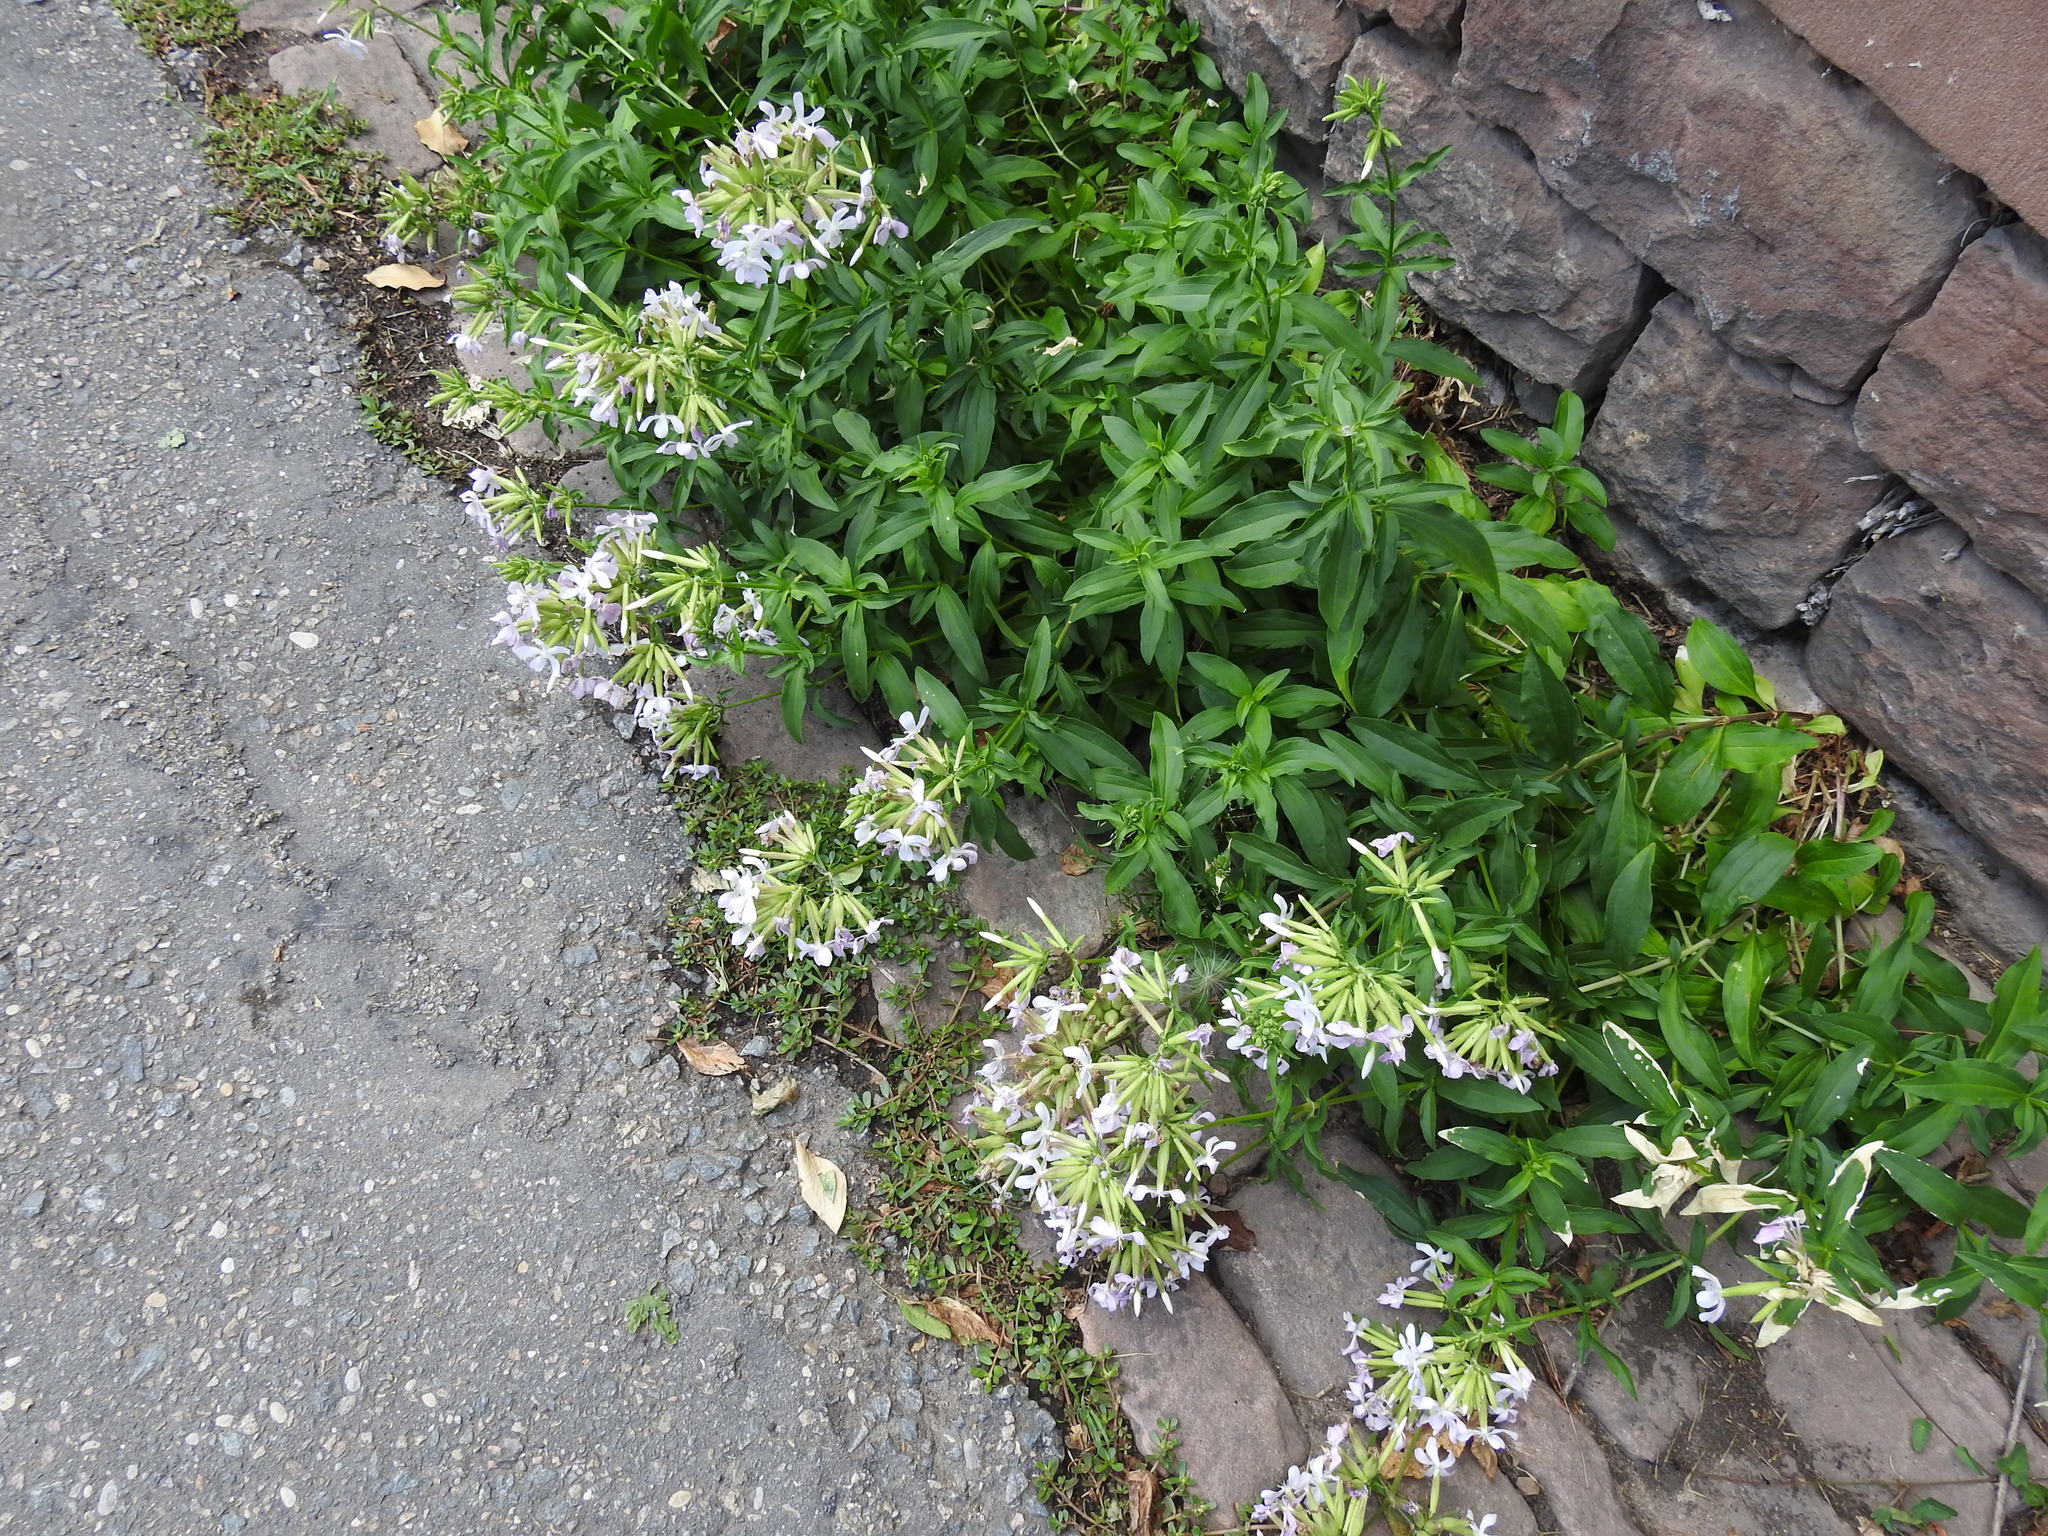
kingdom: Plantae
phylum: Tracheophyta
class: Magnoliopsida
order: Caryophyllales
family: Caryophyllaceae
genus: Saponaria
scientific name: Saponaria officinalis
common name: Soapwort
